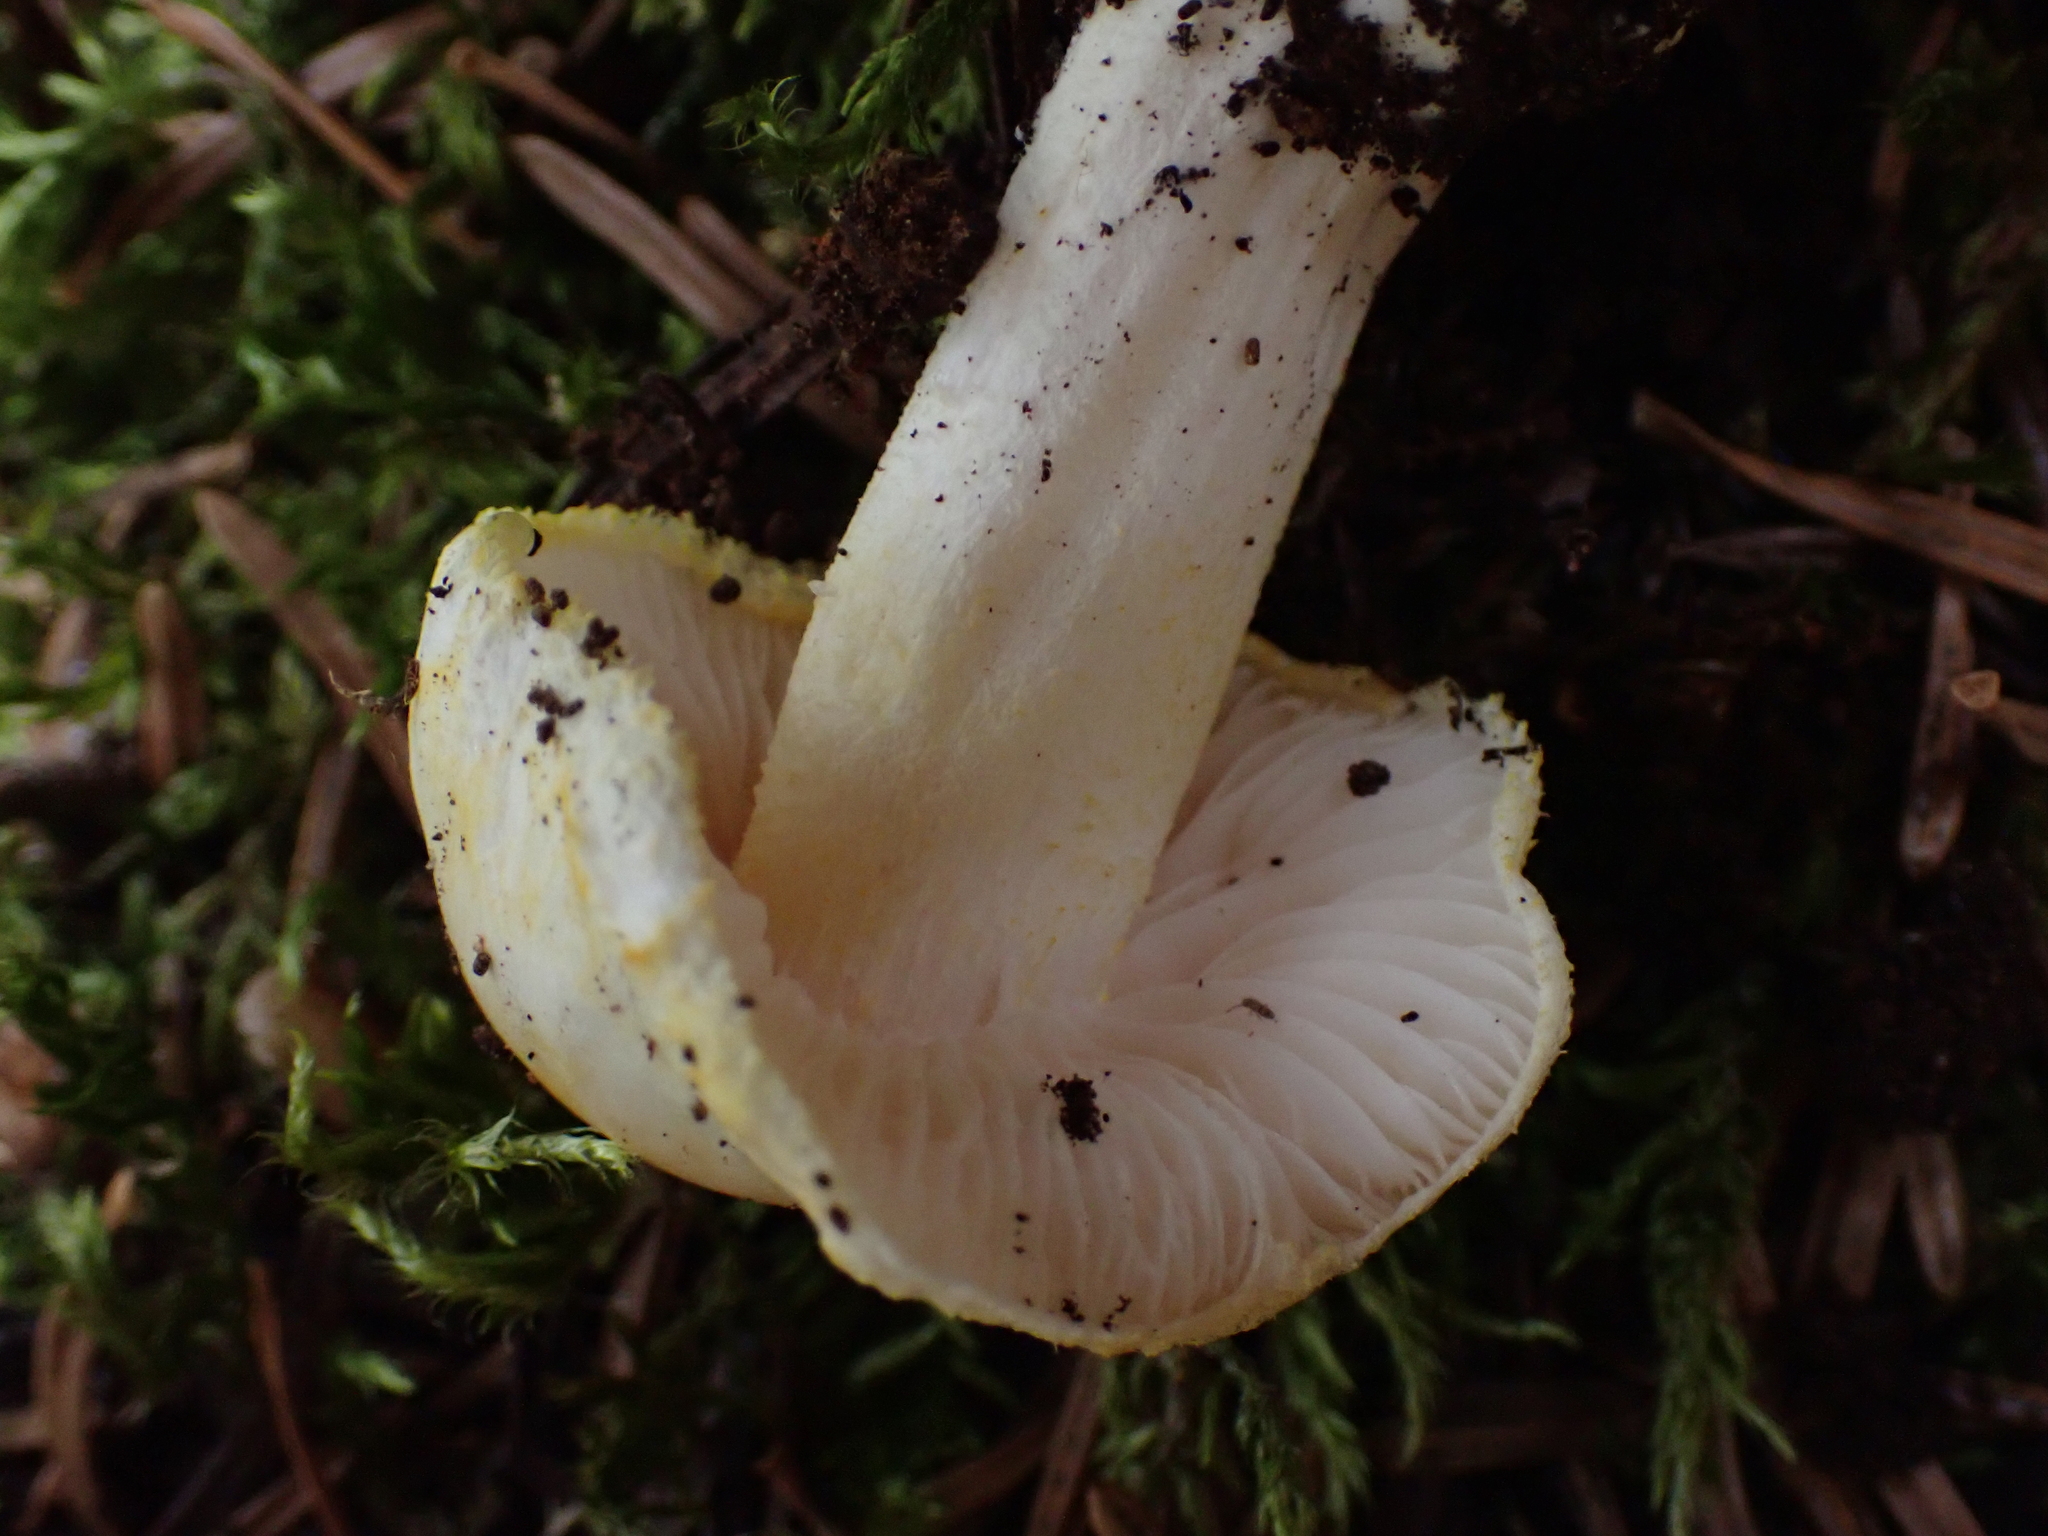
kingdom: Fungi
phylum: Basidiomycota
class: Agaricomycetes
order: Agaricales
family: Hygrophoraceae
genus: Hygrophorus
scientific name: Hygrophorus chrysodon
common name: Gold flecked woodwax
